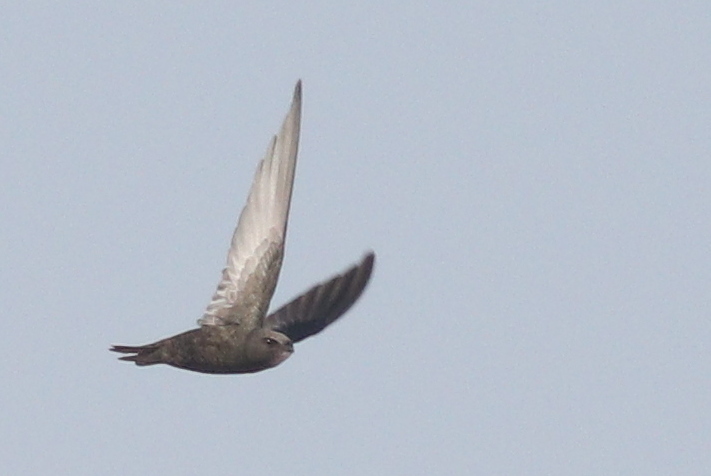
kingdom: Animalia
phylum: Chordata
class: Aves
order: Apodiformes
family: Apodidae
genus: Apus
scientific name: Apus apus
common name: Common swift
